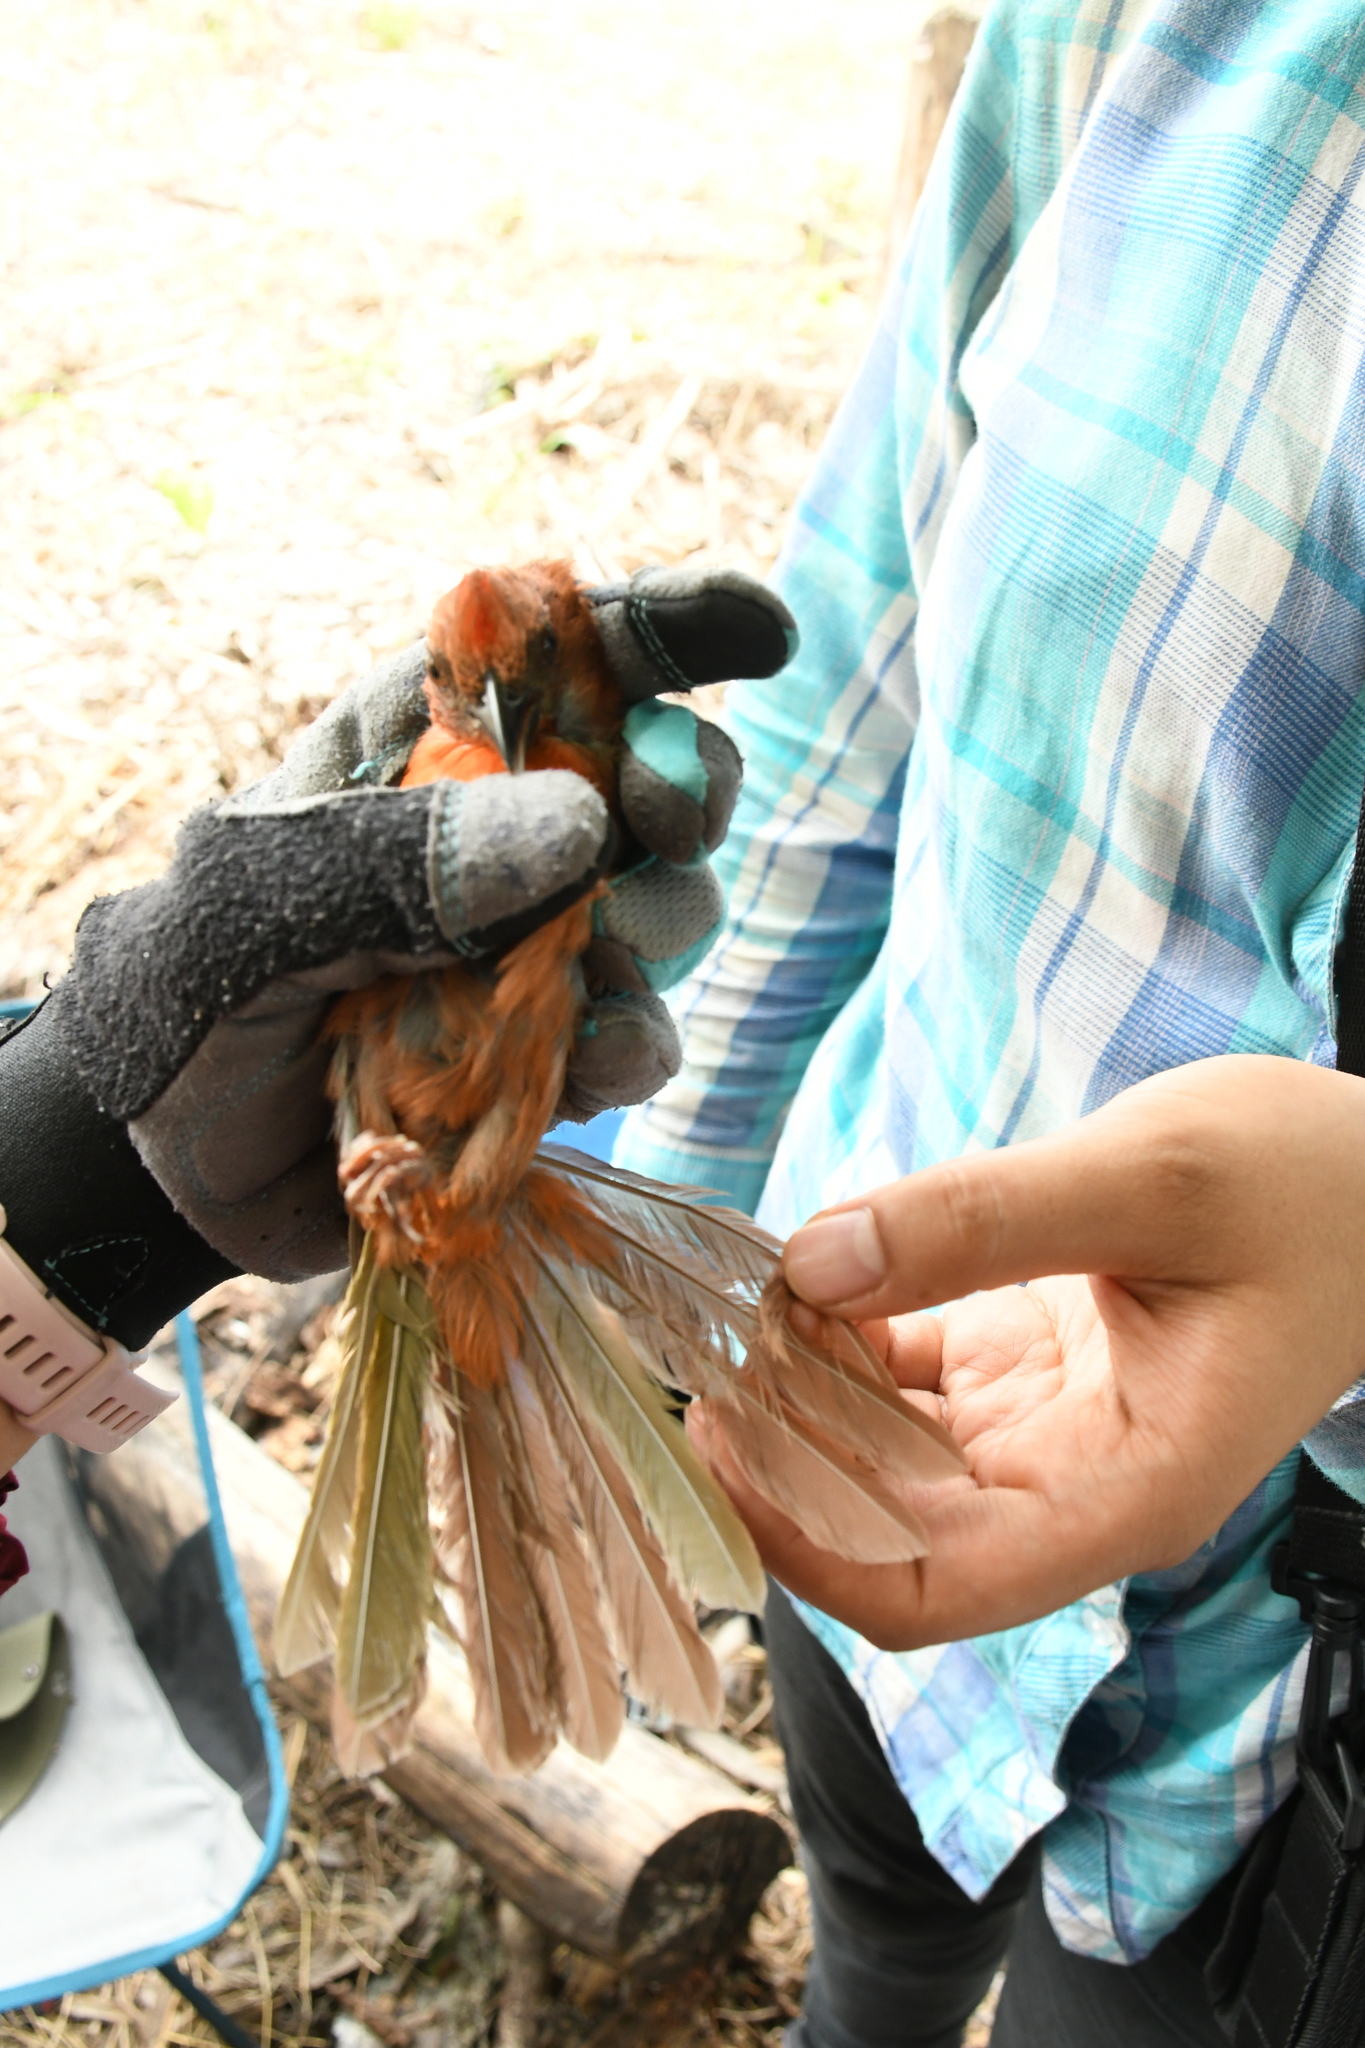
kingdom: Animalia
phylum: Chordata
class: Aves
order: Passeriformes
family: Cardinalidae
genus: Habia
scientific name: Habia fuscicauda
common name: Red-throated ant-tanager
